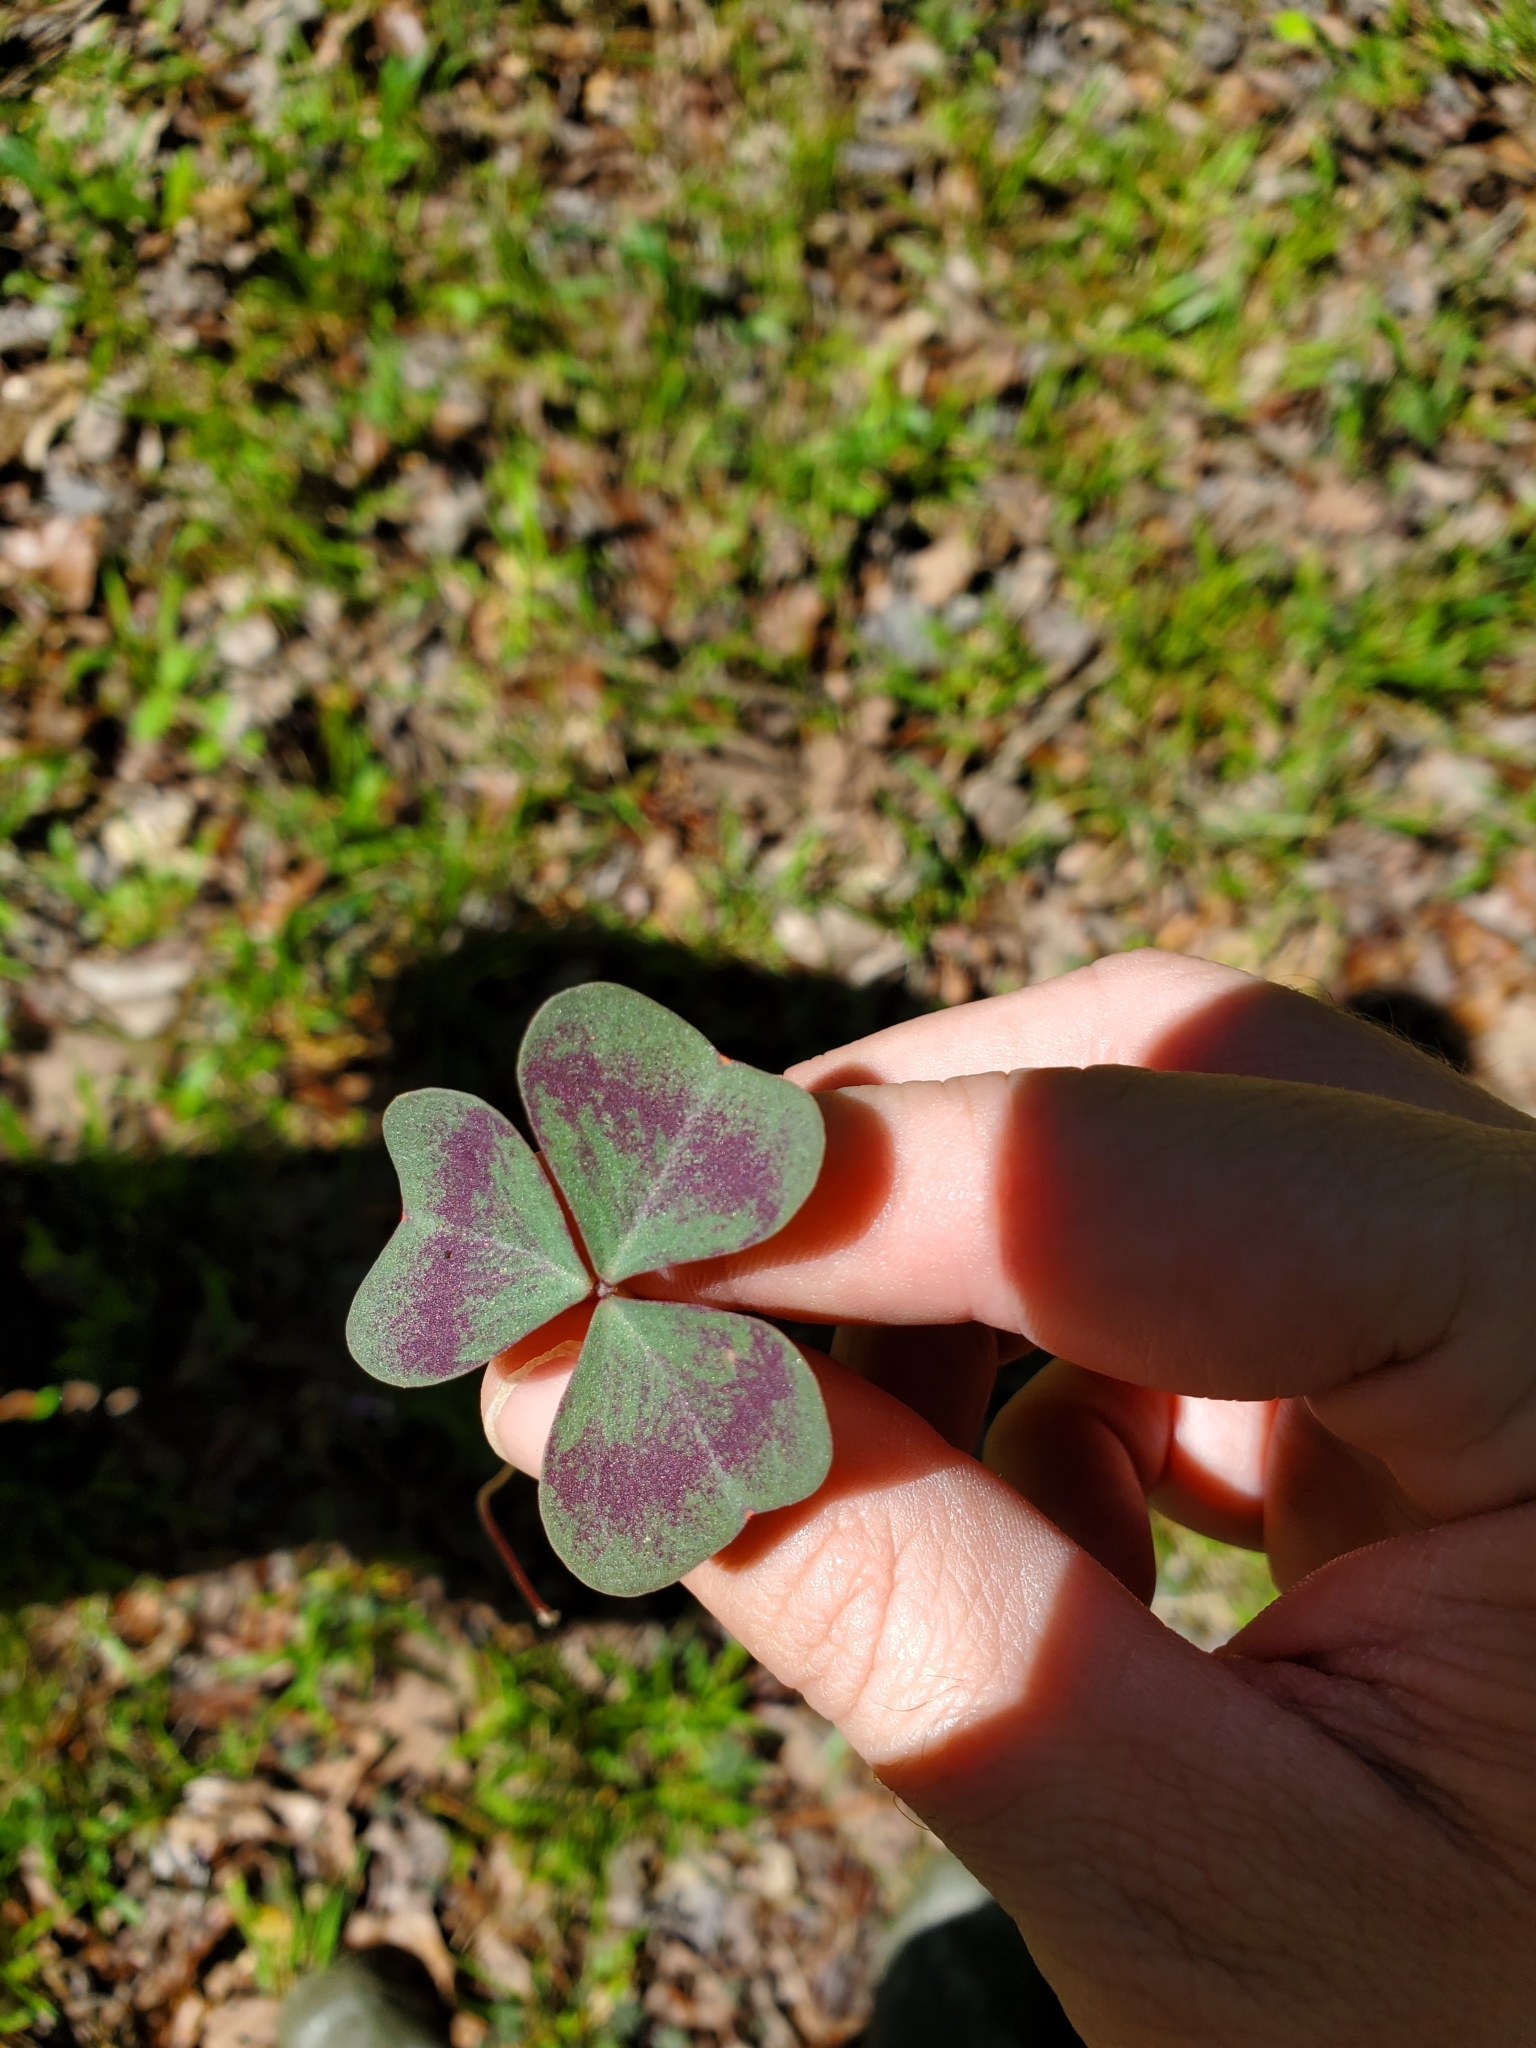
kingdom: Plantae
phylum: Tracheophyta
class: Magnoliopsida
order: Oxalidales
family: Oxalidaceae
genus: Oxalis
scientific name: Oxalis violacea
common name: Violet wood-sorrel
